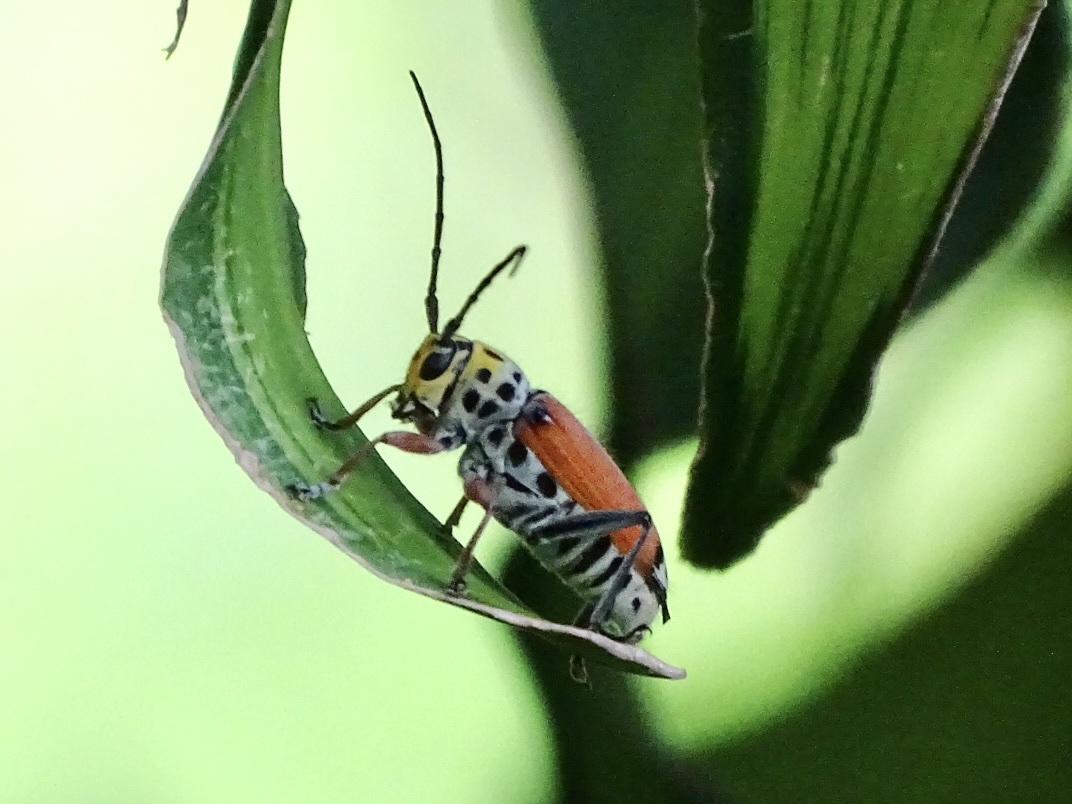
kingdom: Animalia
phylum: Arthropoda
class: Insecta
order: Coleoptera
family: Cerambycidae
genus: Glenea
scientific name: Glenea cantor
